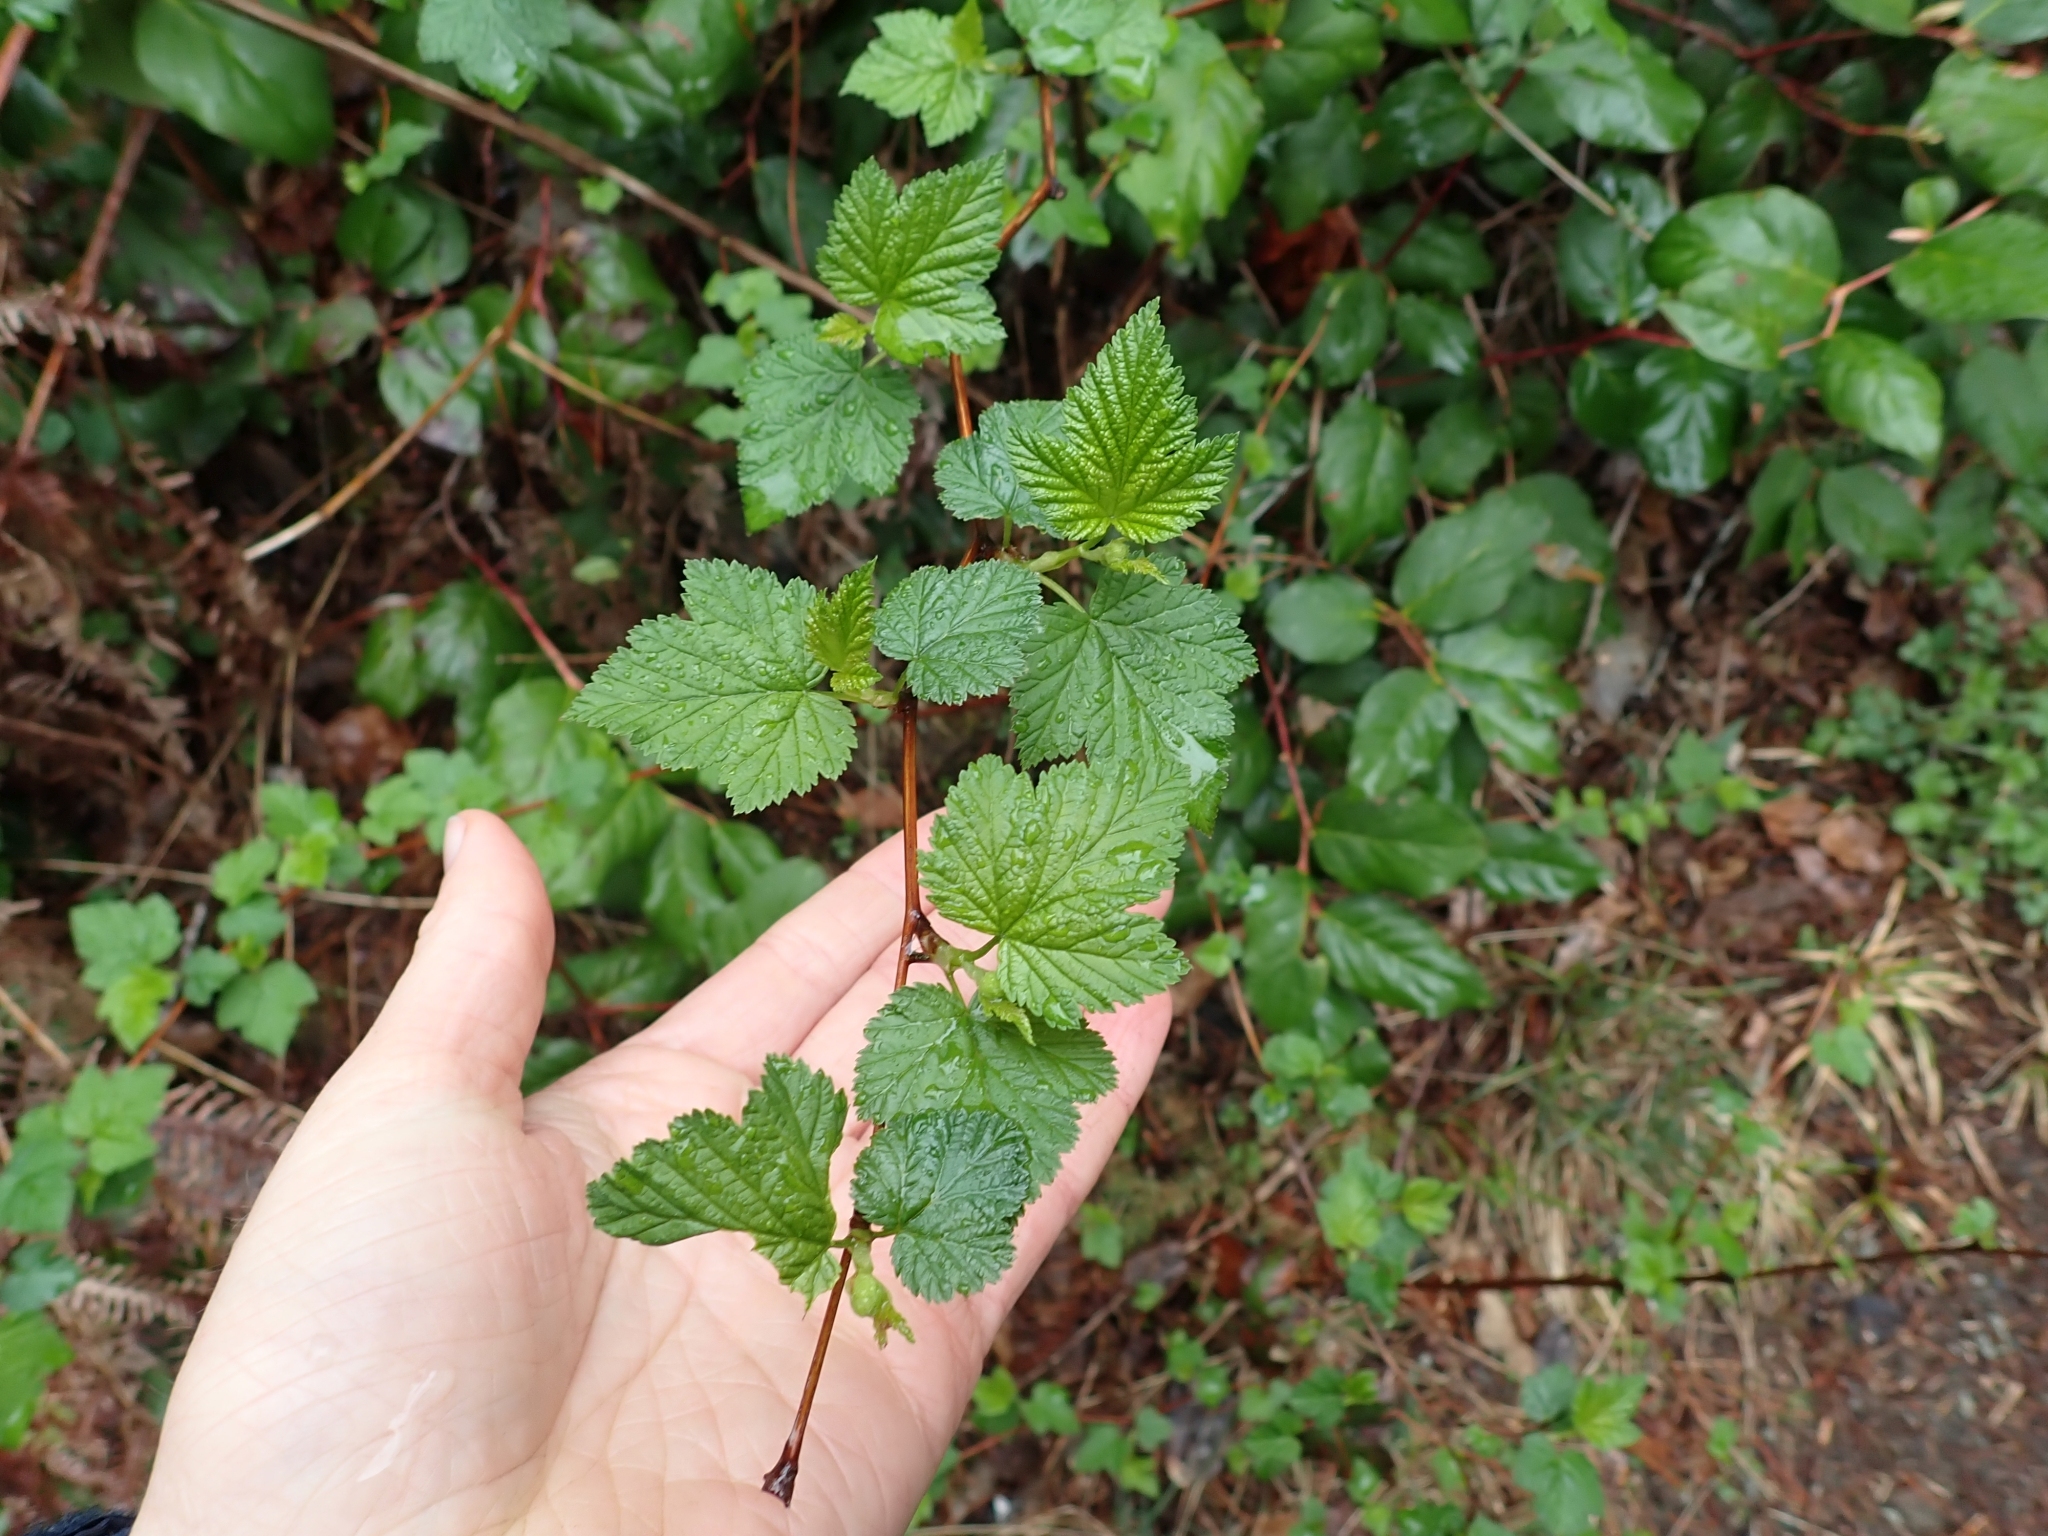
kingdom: Plantae
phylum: Tracheophyta
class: Magnoliopsida
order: Rosales
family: Rosaceae
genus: Physocarpus
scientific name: Physocarpus capitatus
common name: Pacific ninebark
